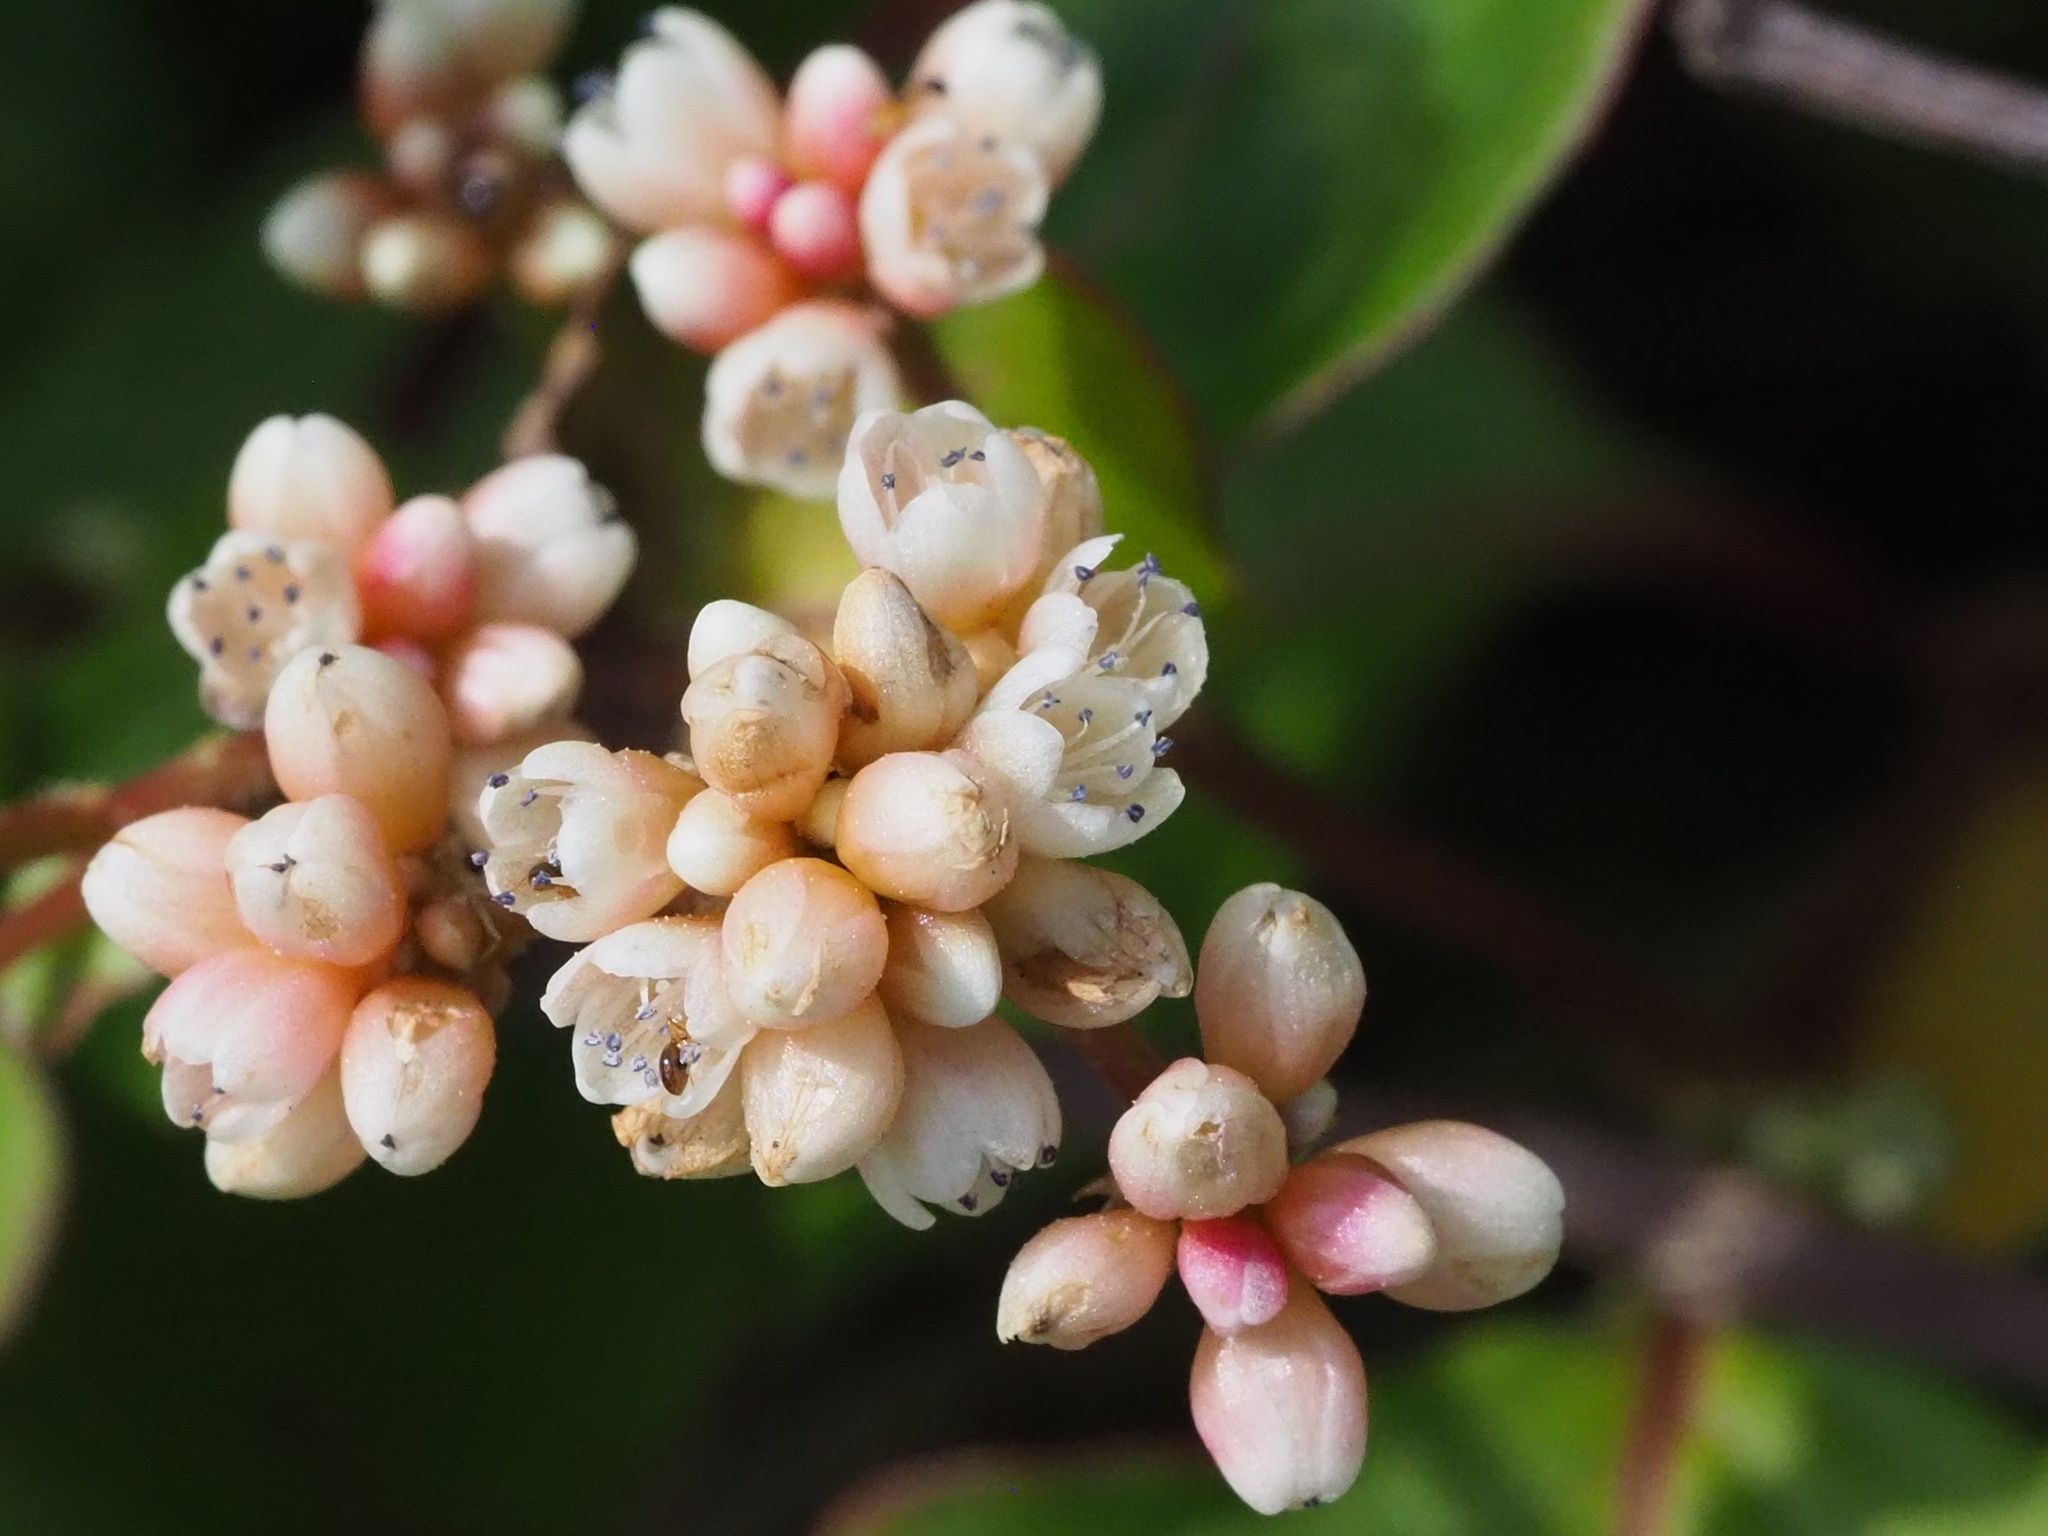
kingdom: Plantae
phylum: Tracheophyta
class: Magnoliopsida
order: Caryophyllales
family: Polygonaceae
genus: Persicaria
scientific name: Persicaria chinensis
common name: Chinese knotweed
